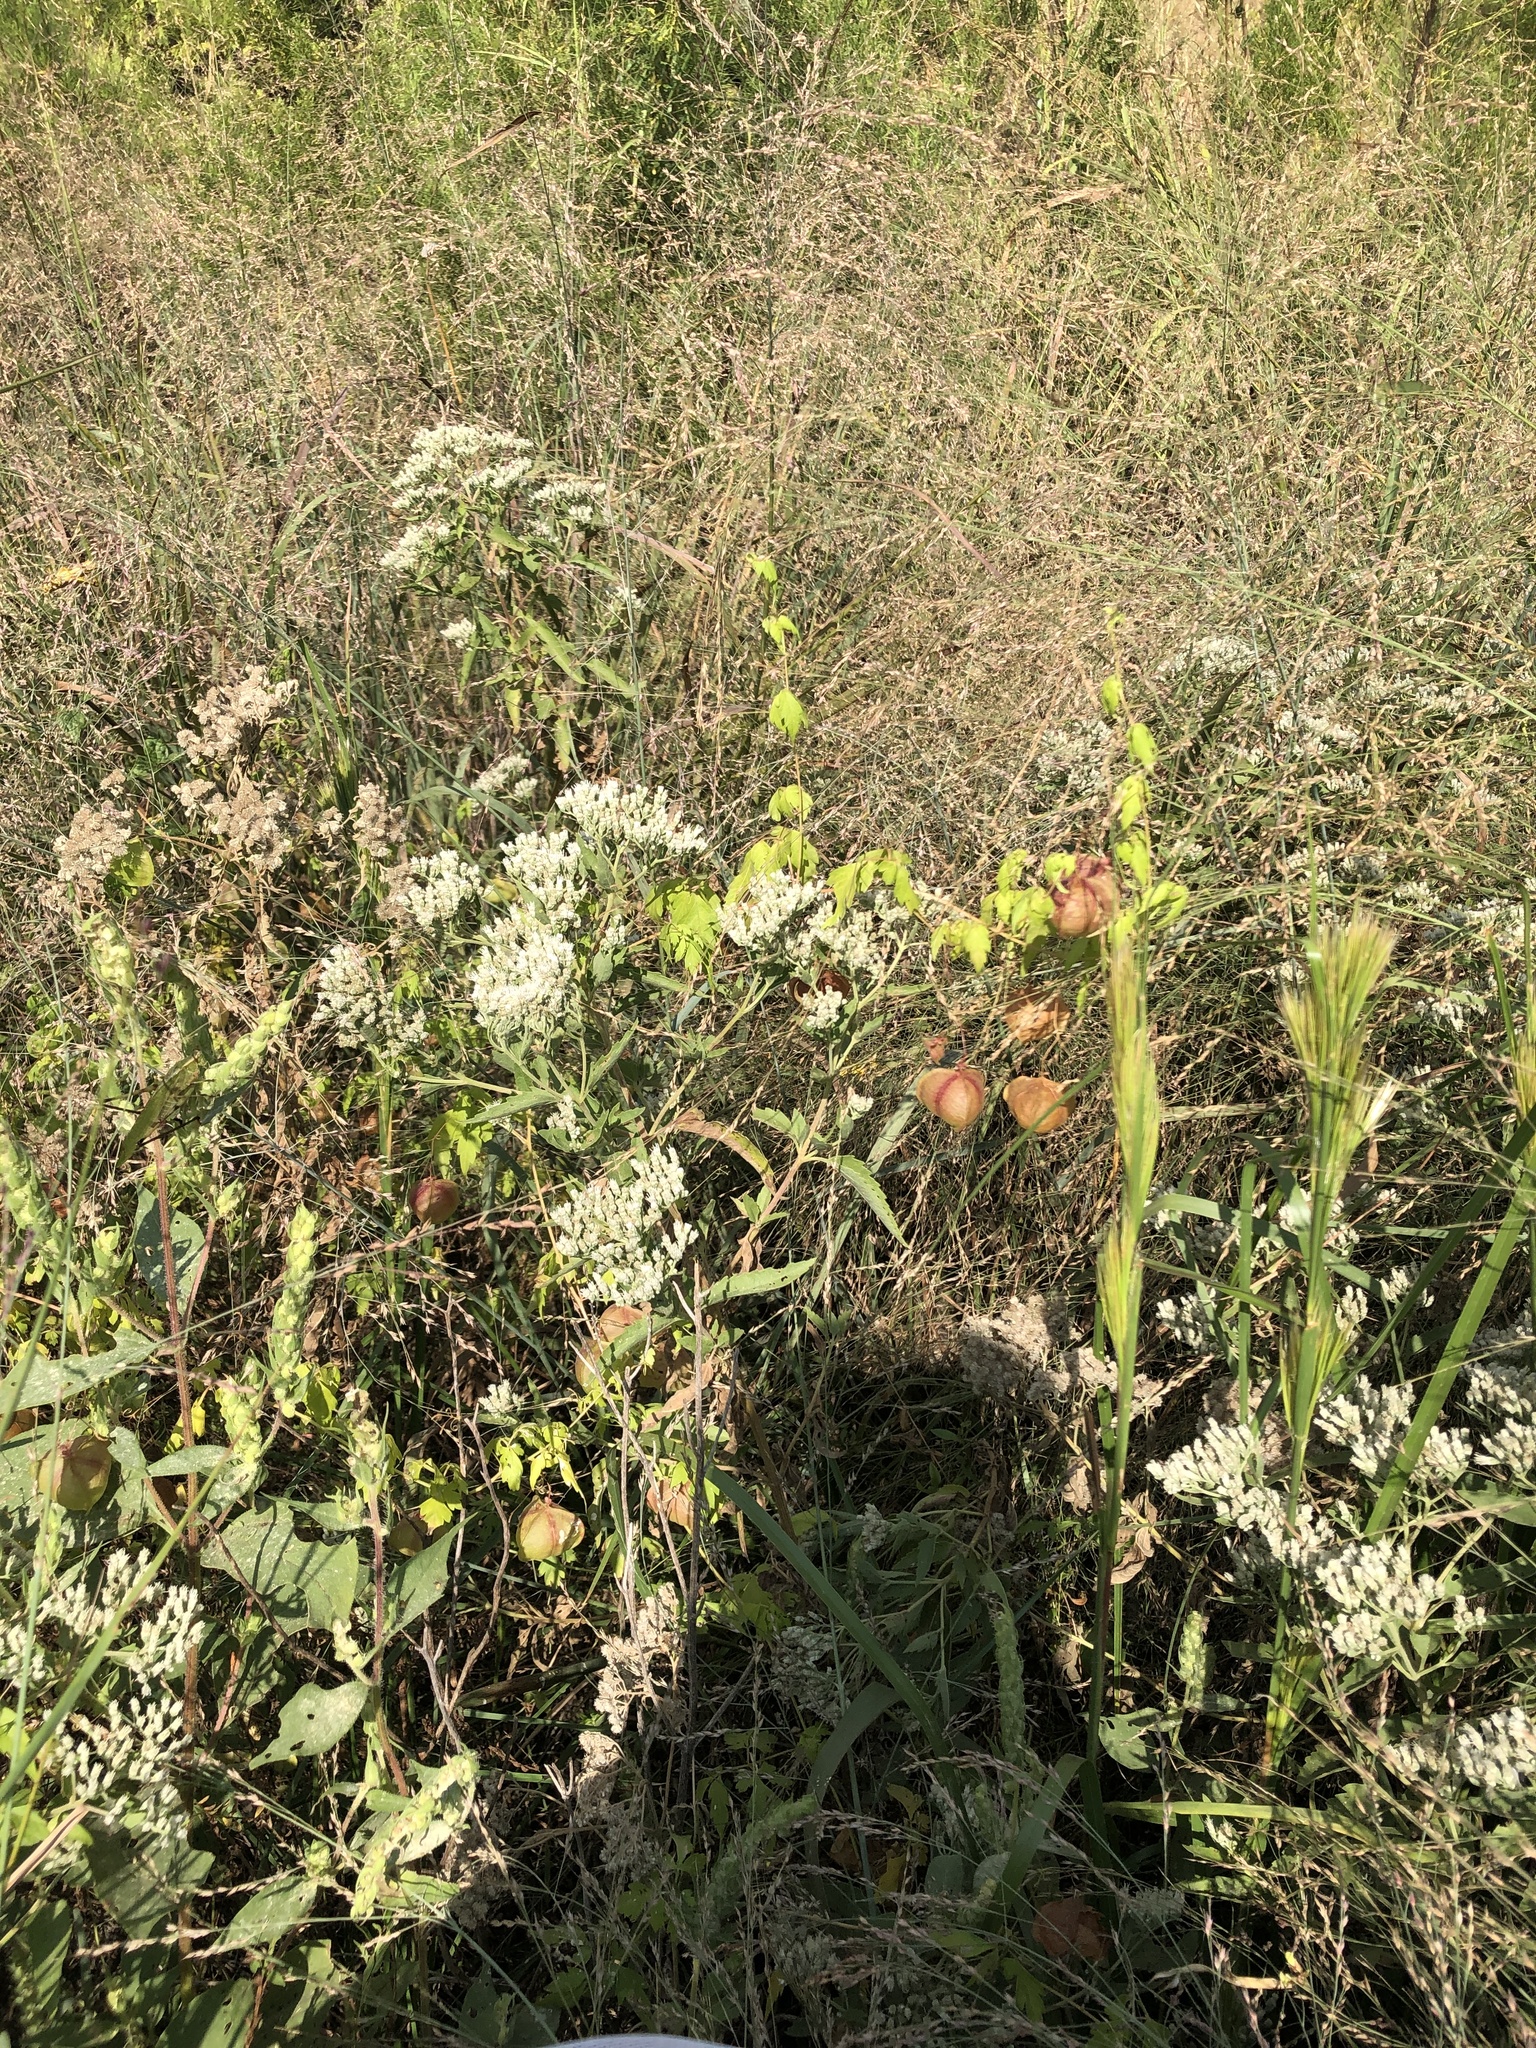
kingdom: Plantae
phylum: Tracheophyta
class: Magnoliopsida
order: Sapindales
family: Sapindaceae
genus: Cardiospermum
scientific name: Cardiospermum halicacabum
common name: Balloon vine
